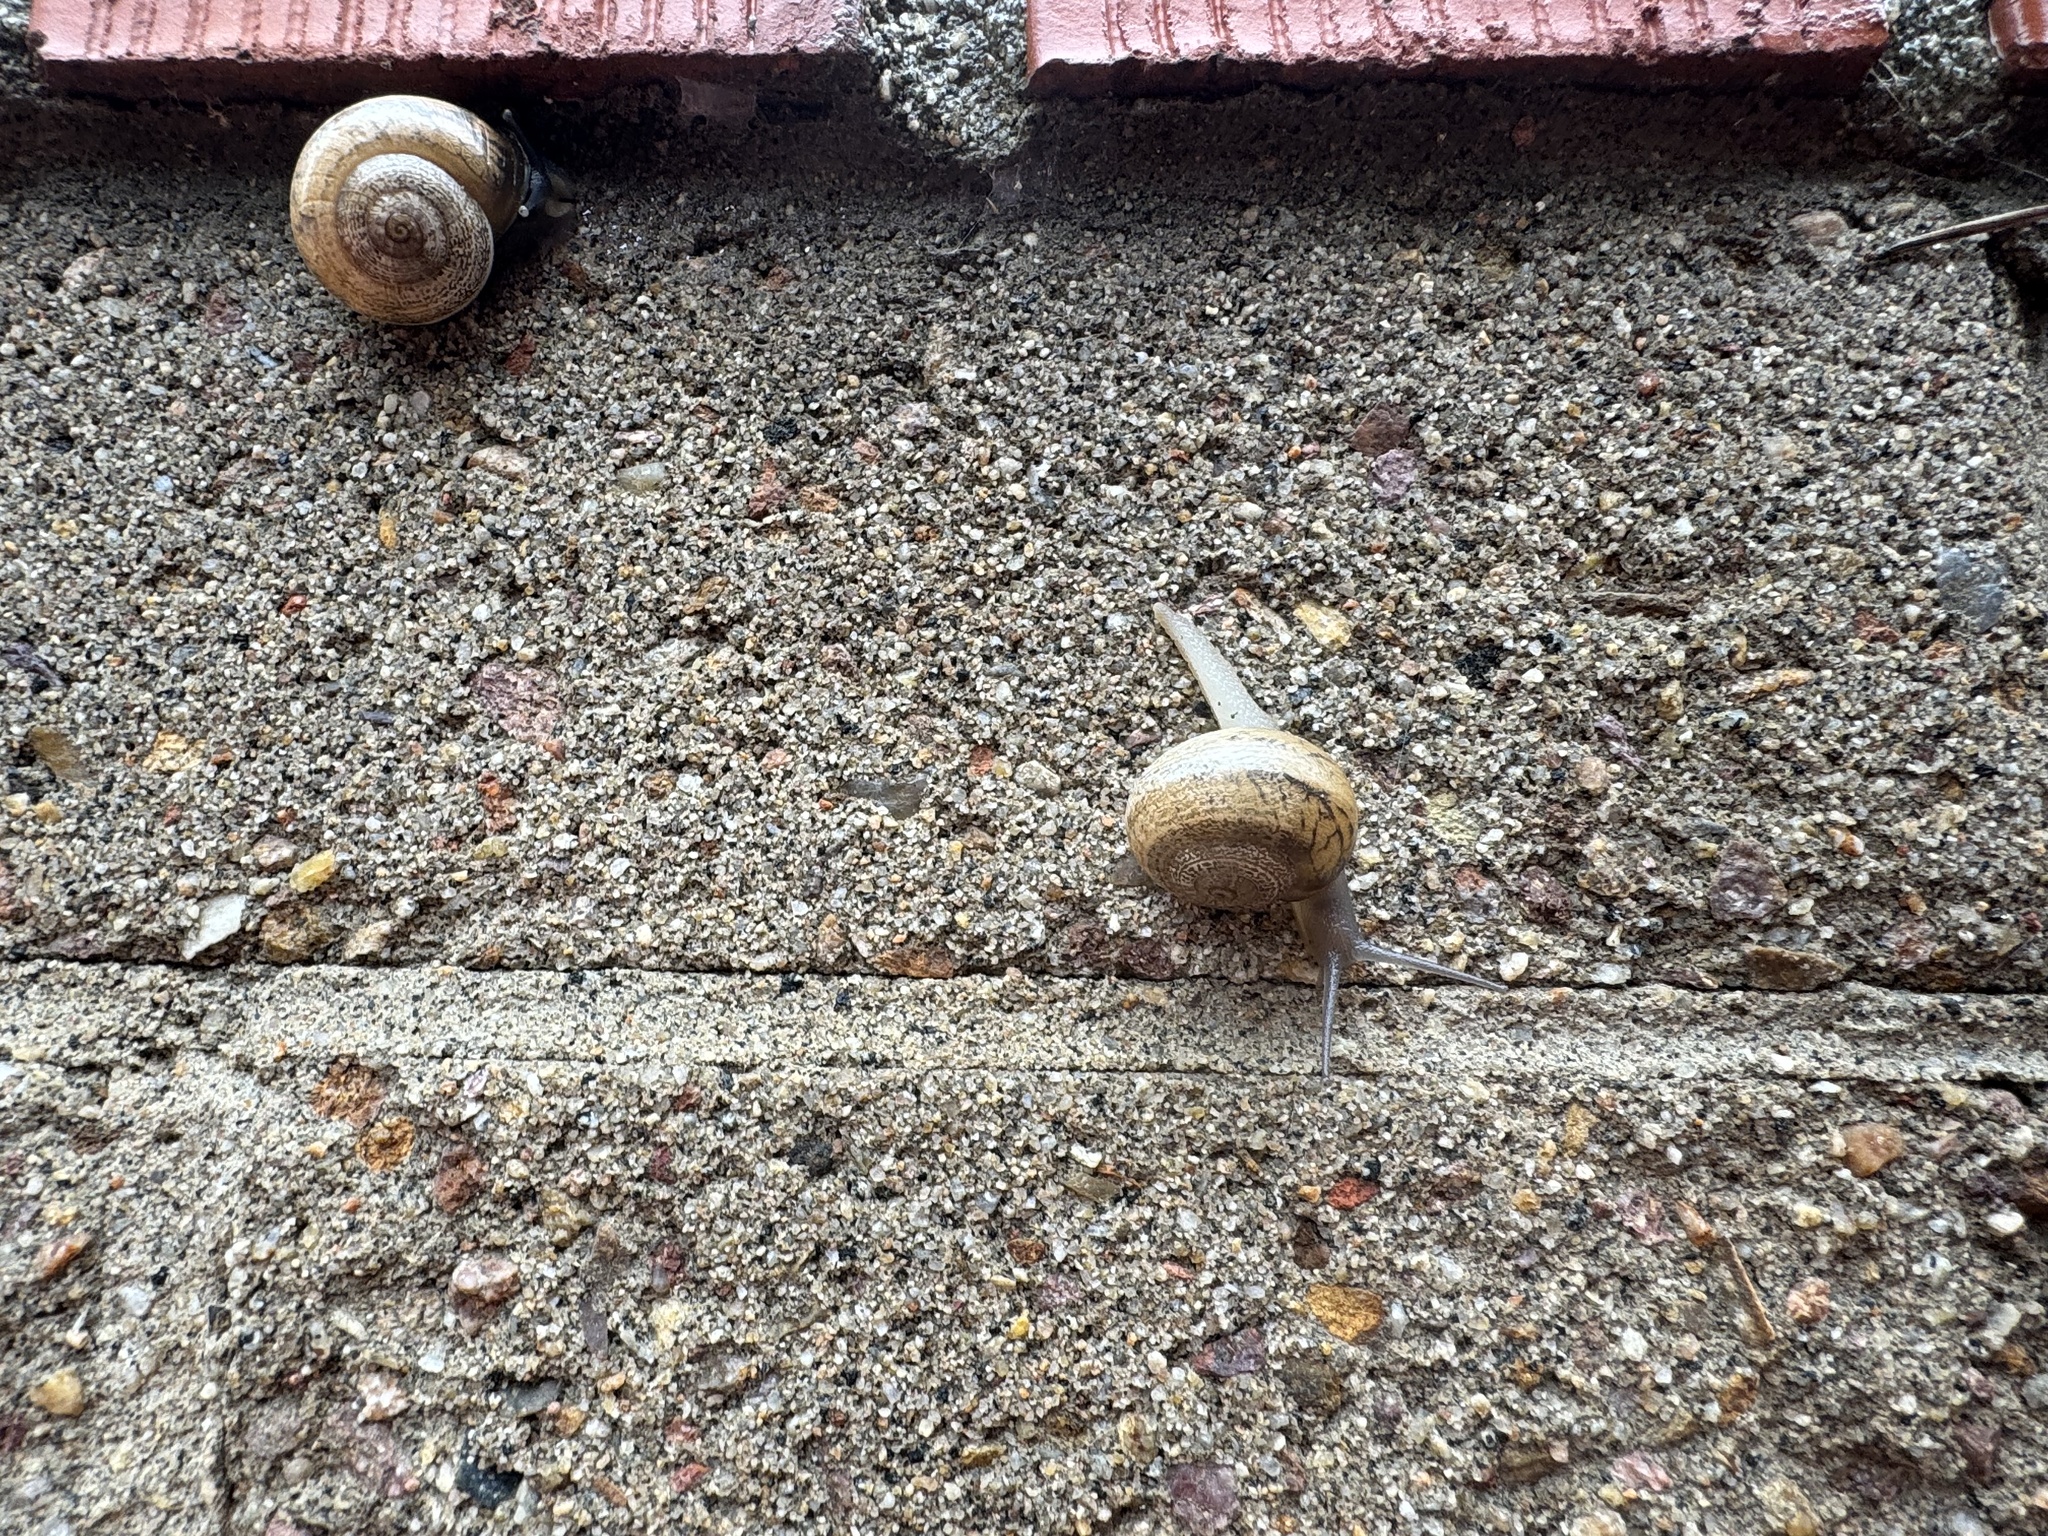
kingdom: Animalia
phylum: Mollusca
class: Gastropoda
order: Stylommatophora
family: Helicidae
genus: Otala
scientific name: Otala lactea
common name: Milk snail
